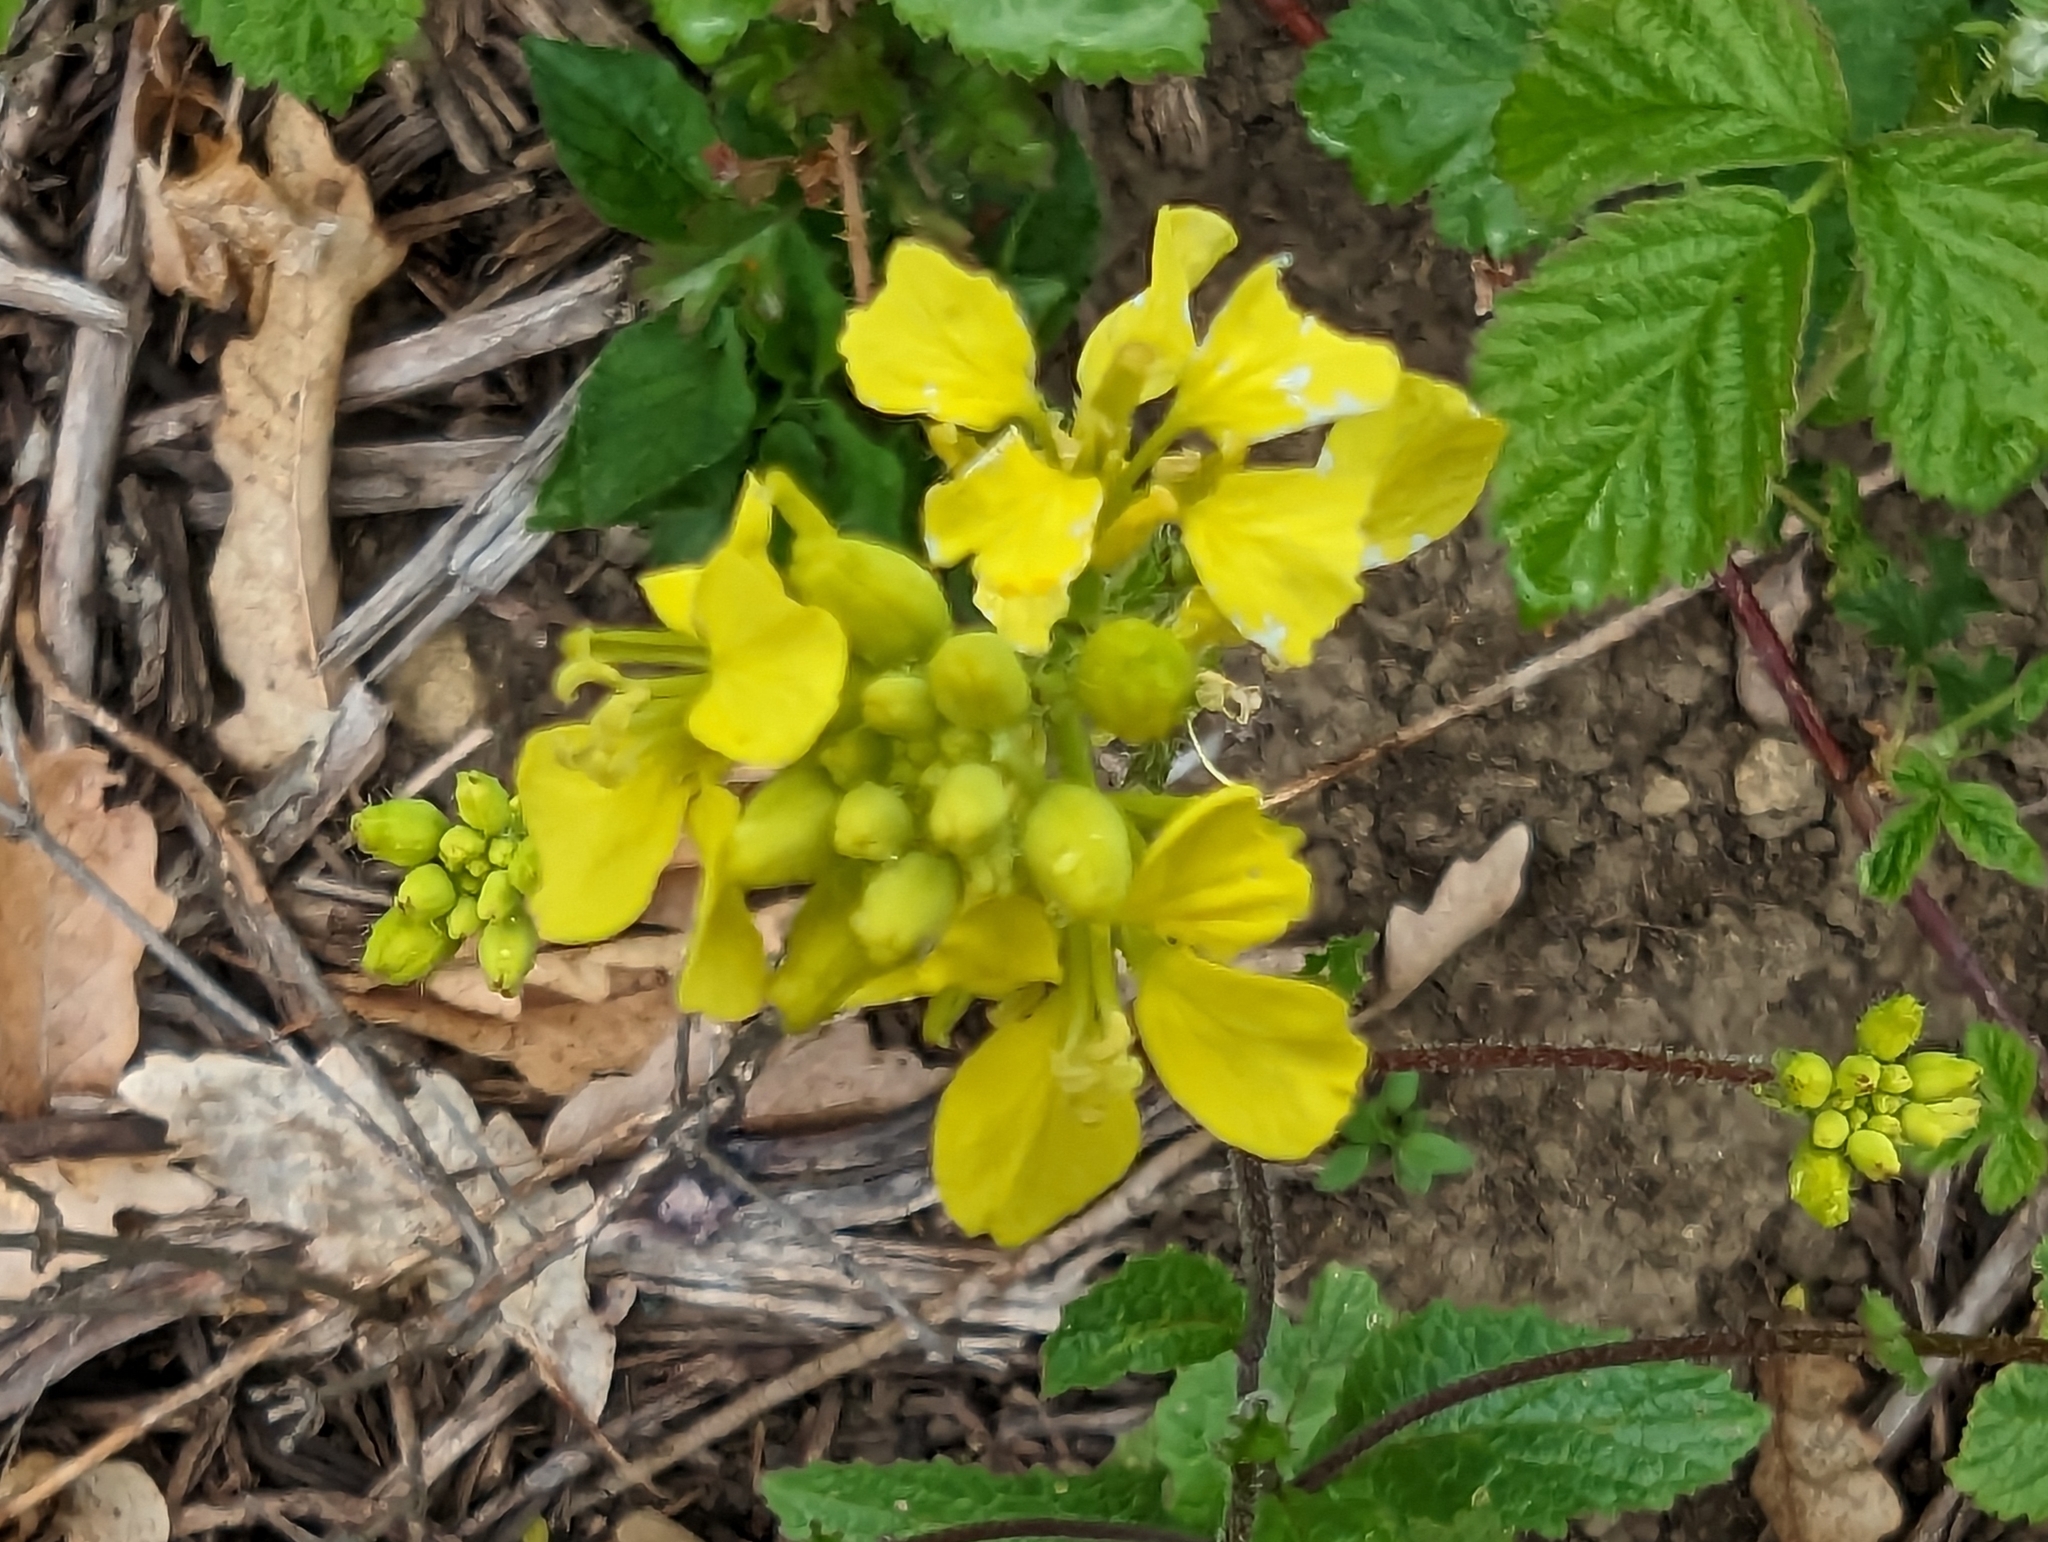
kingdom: Plantae
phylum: Tracheophyta
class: Magnoliopsida
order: Brassicales
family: Brassicaceae
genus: Sinapis
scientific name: Sinapis arvensis
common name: Charlock
